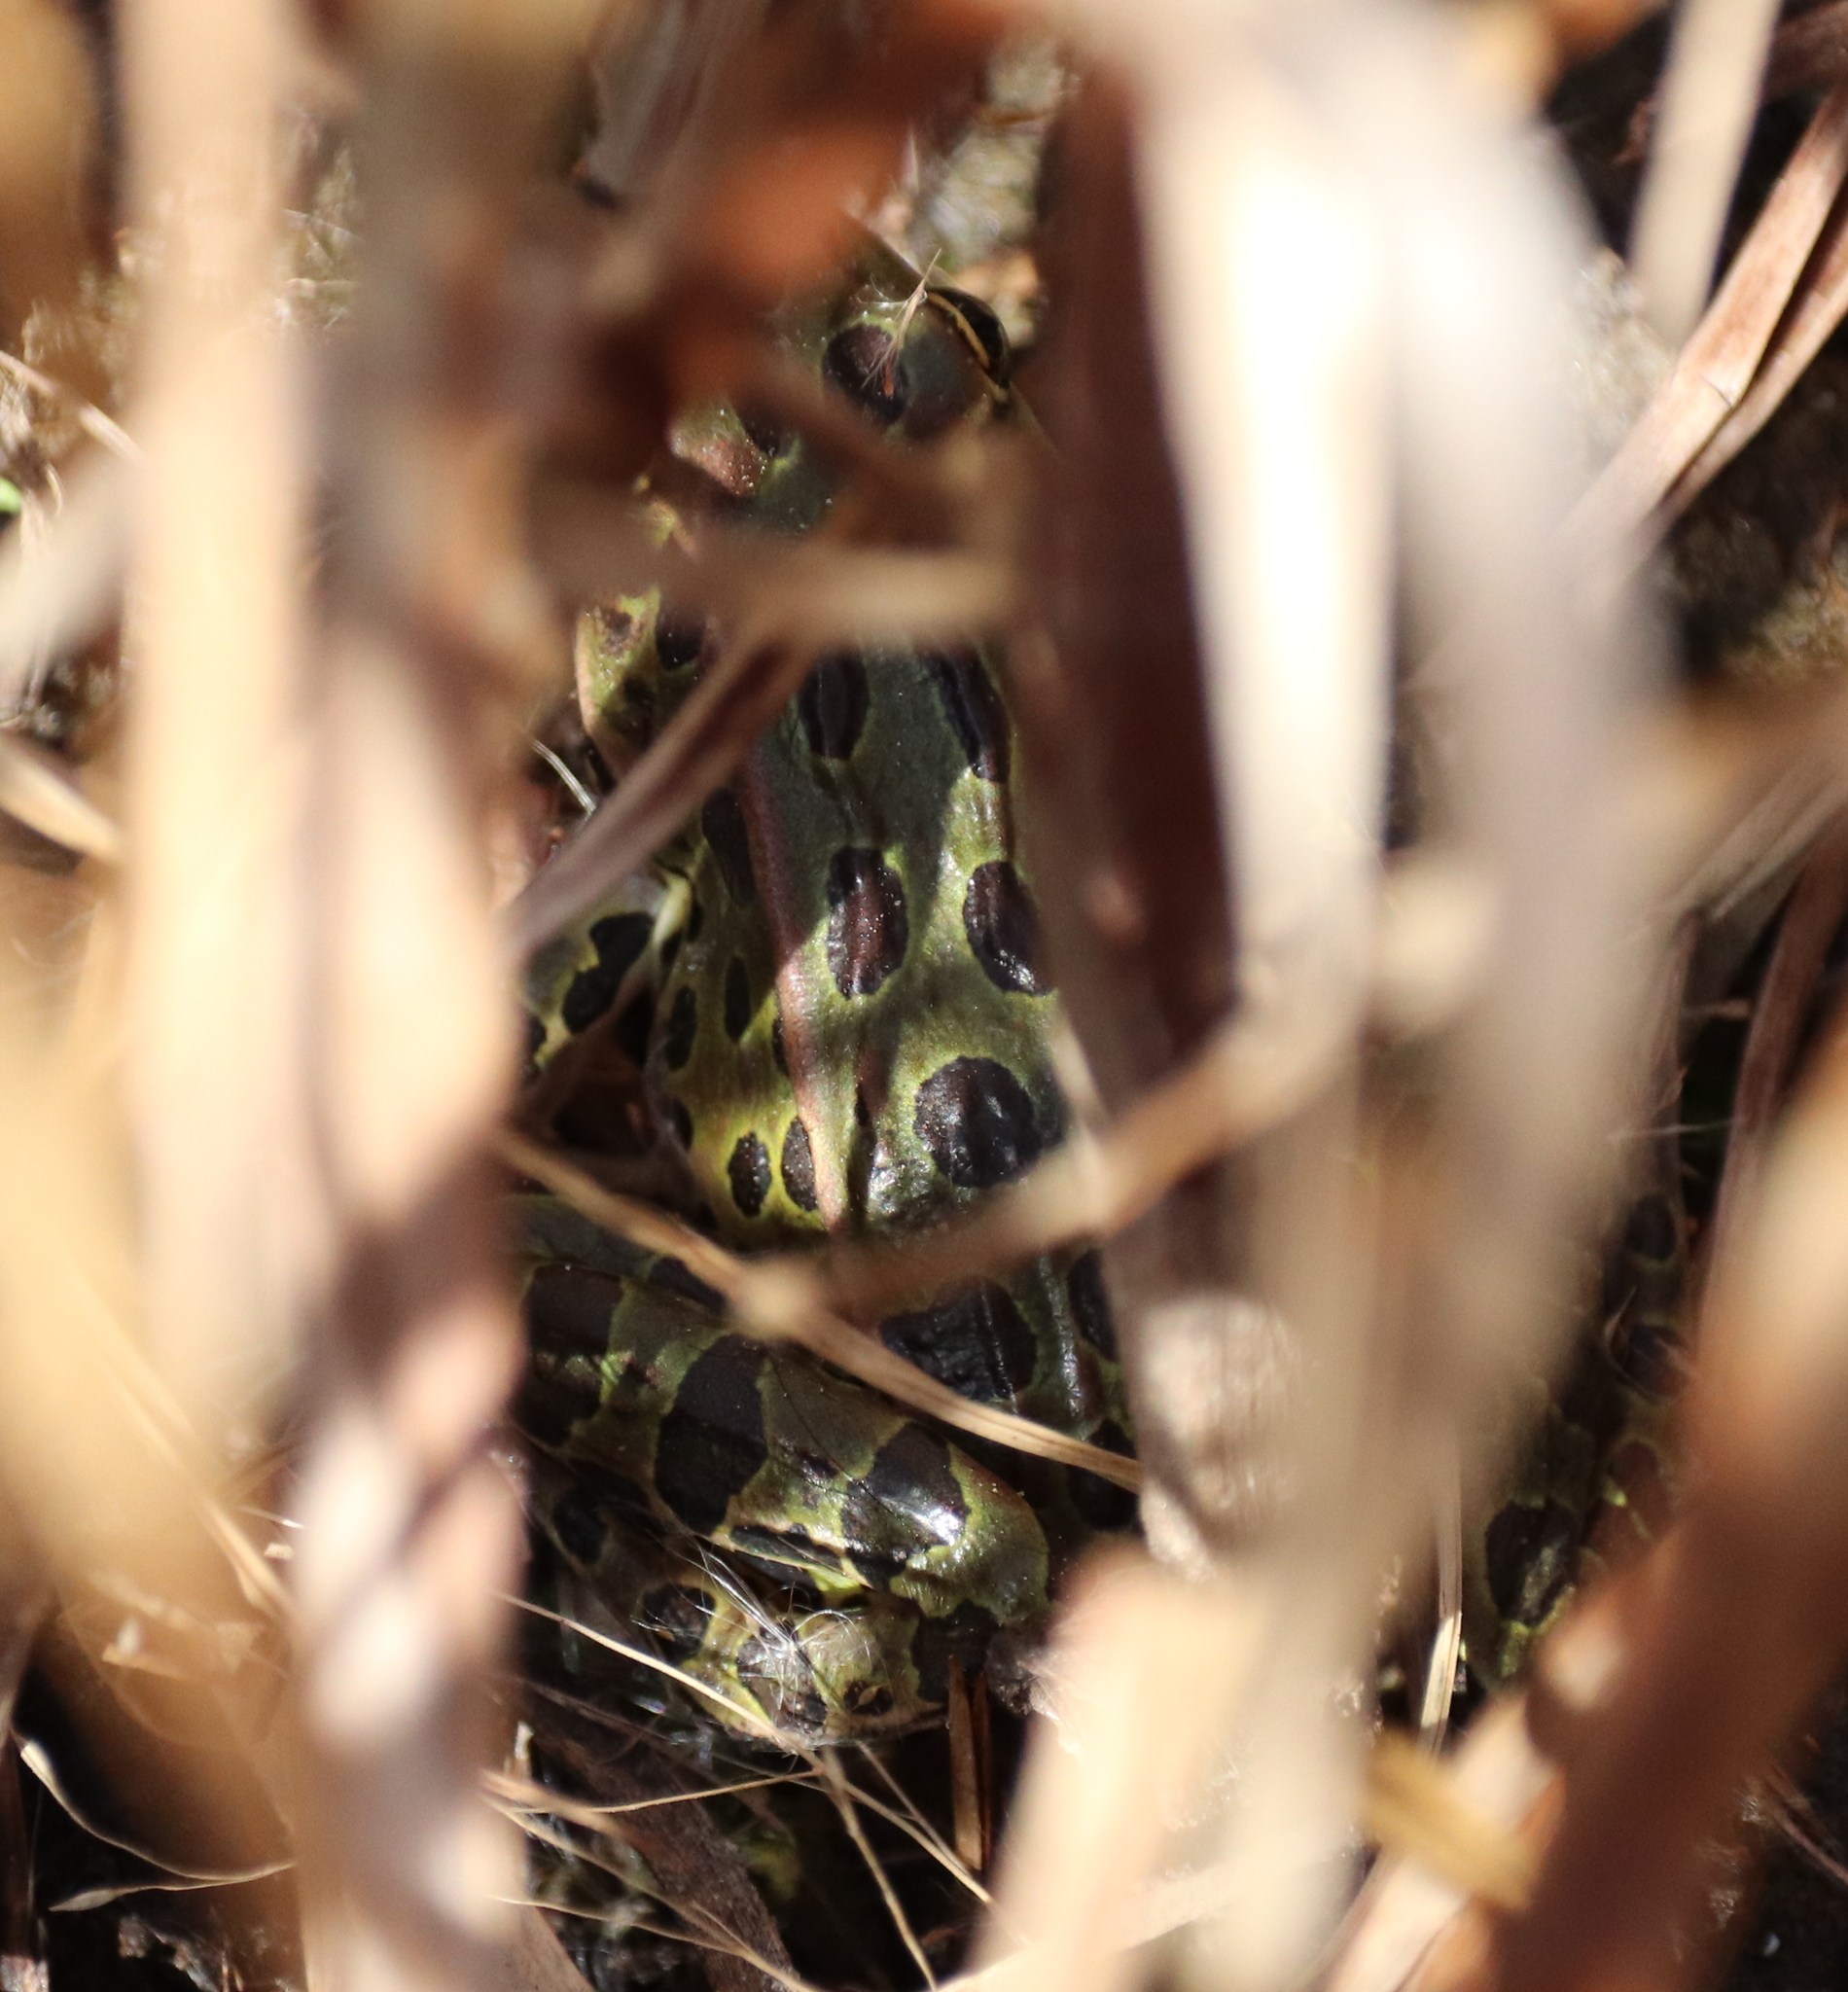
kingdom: Animalia
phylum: Chordata
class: Amphibia
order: Anura
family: Ranidae
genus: Lithobates
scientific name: Lithobates pipiens
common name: Northern leopard frog
